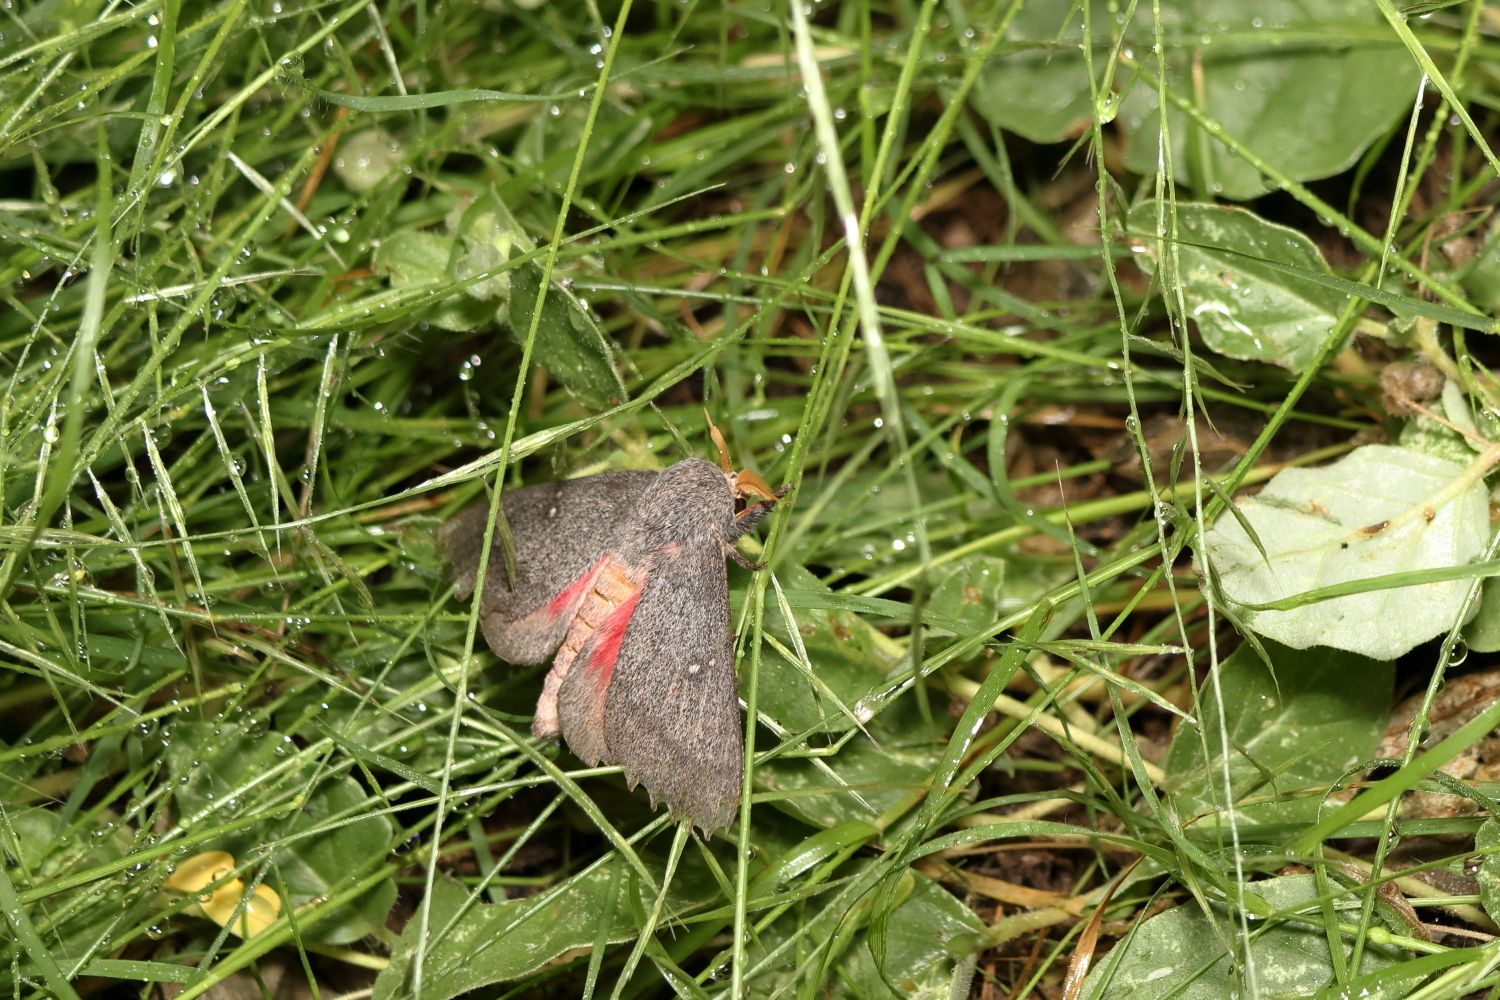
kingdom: Animalia
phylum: Arthropoda
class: Insecta
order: Lepidoptera
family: Saturniidae
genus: Syssphinx
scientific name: Syssphinx hubbardi
